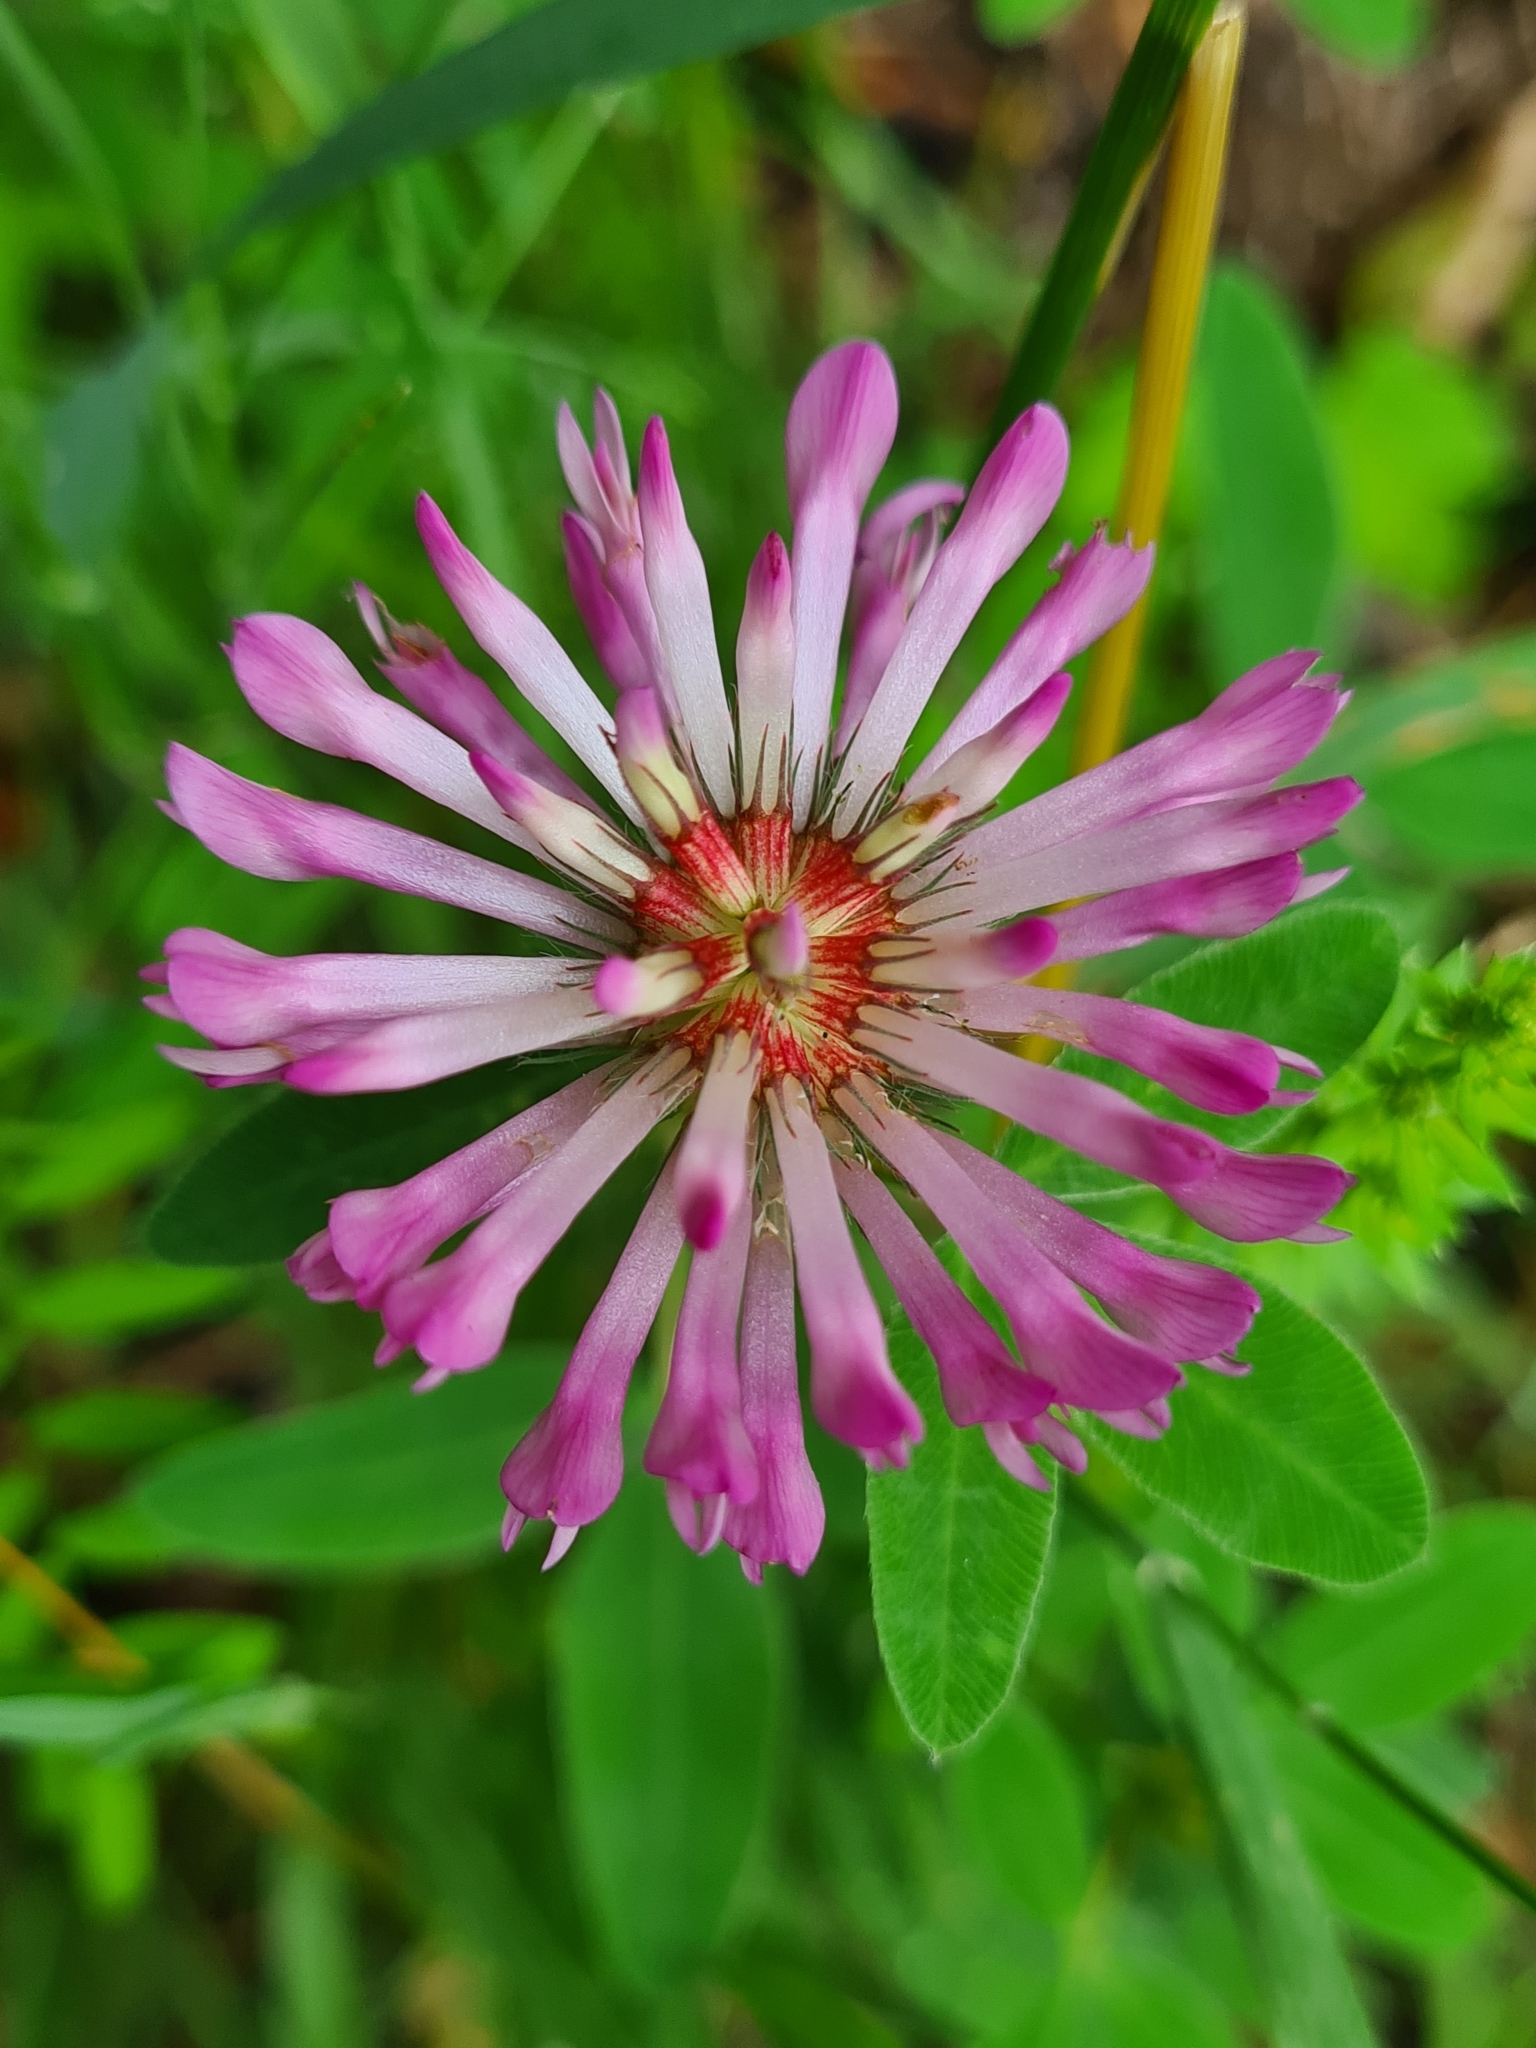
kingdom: Plantae
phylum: Tracheophyta
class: Magnoliopsida
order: Fabales
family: Fabaceae
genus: Trifolium
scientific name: Trifolium medium
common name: Zigzag clover
